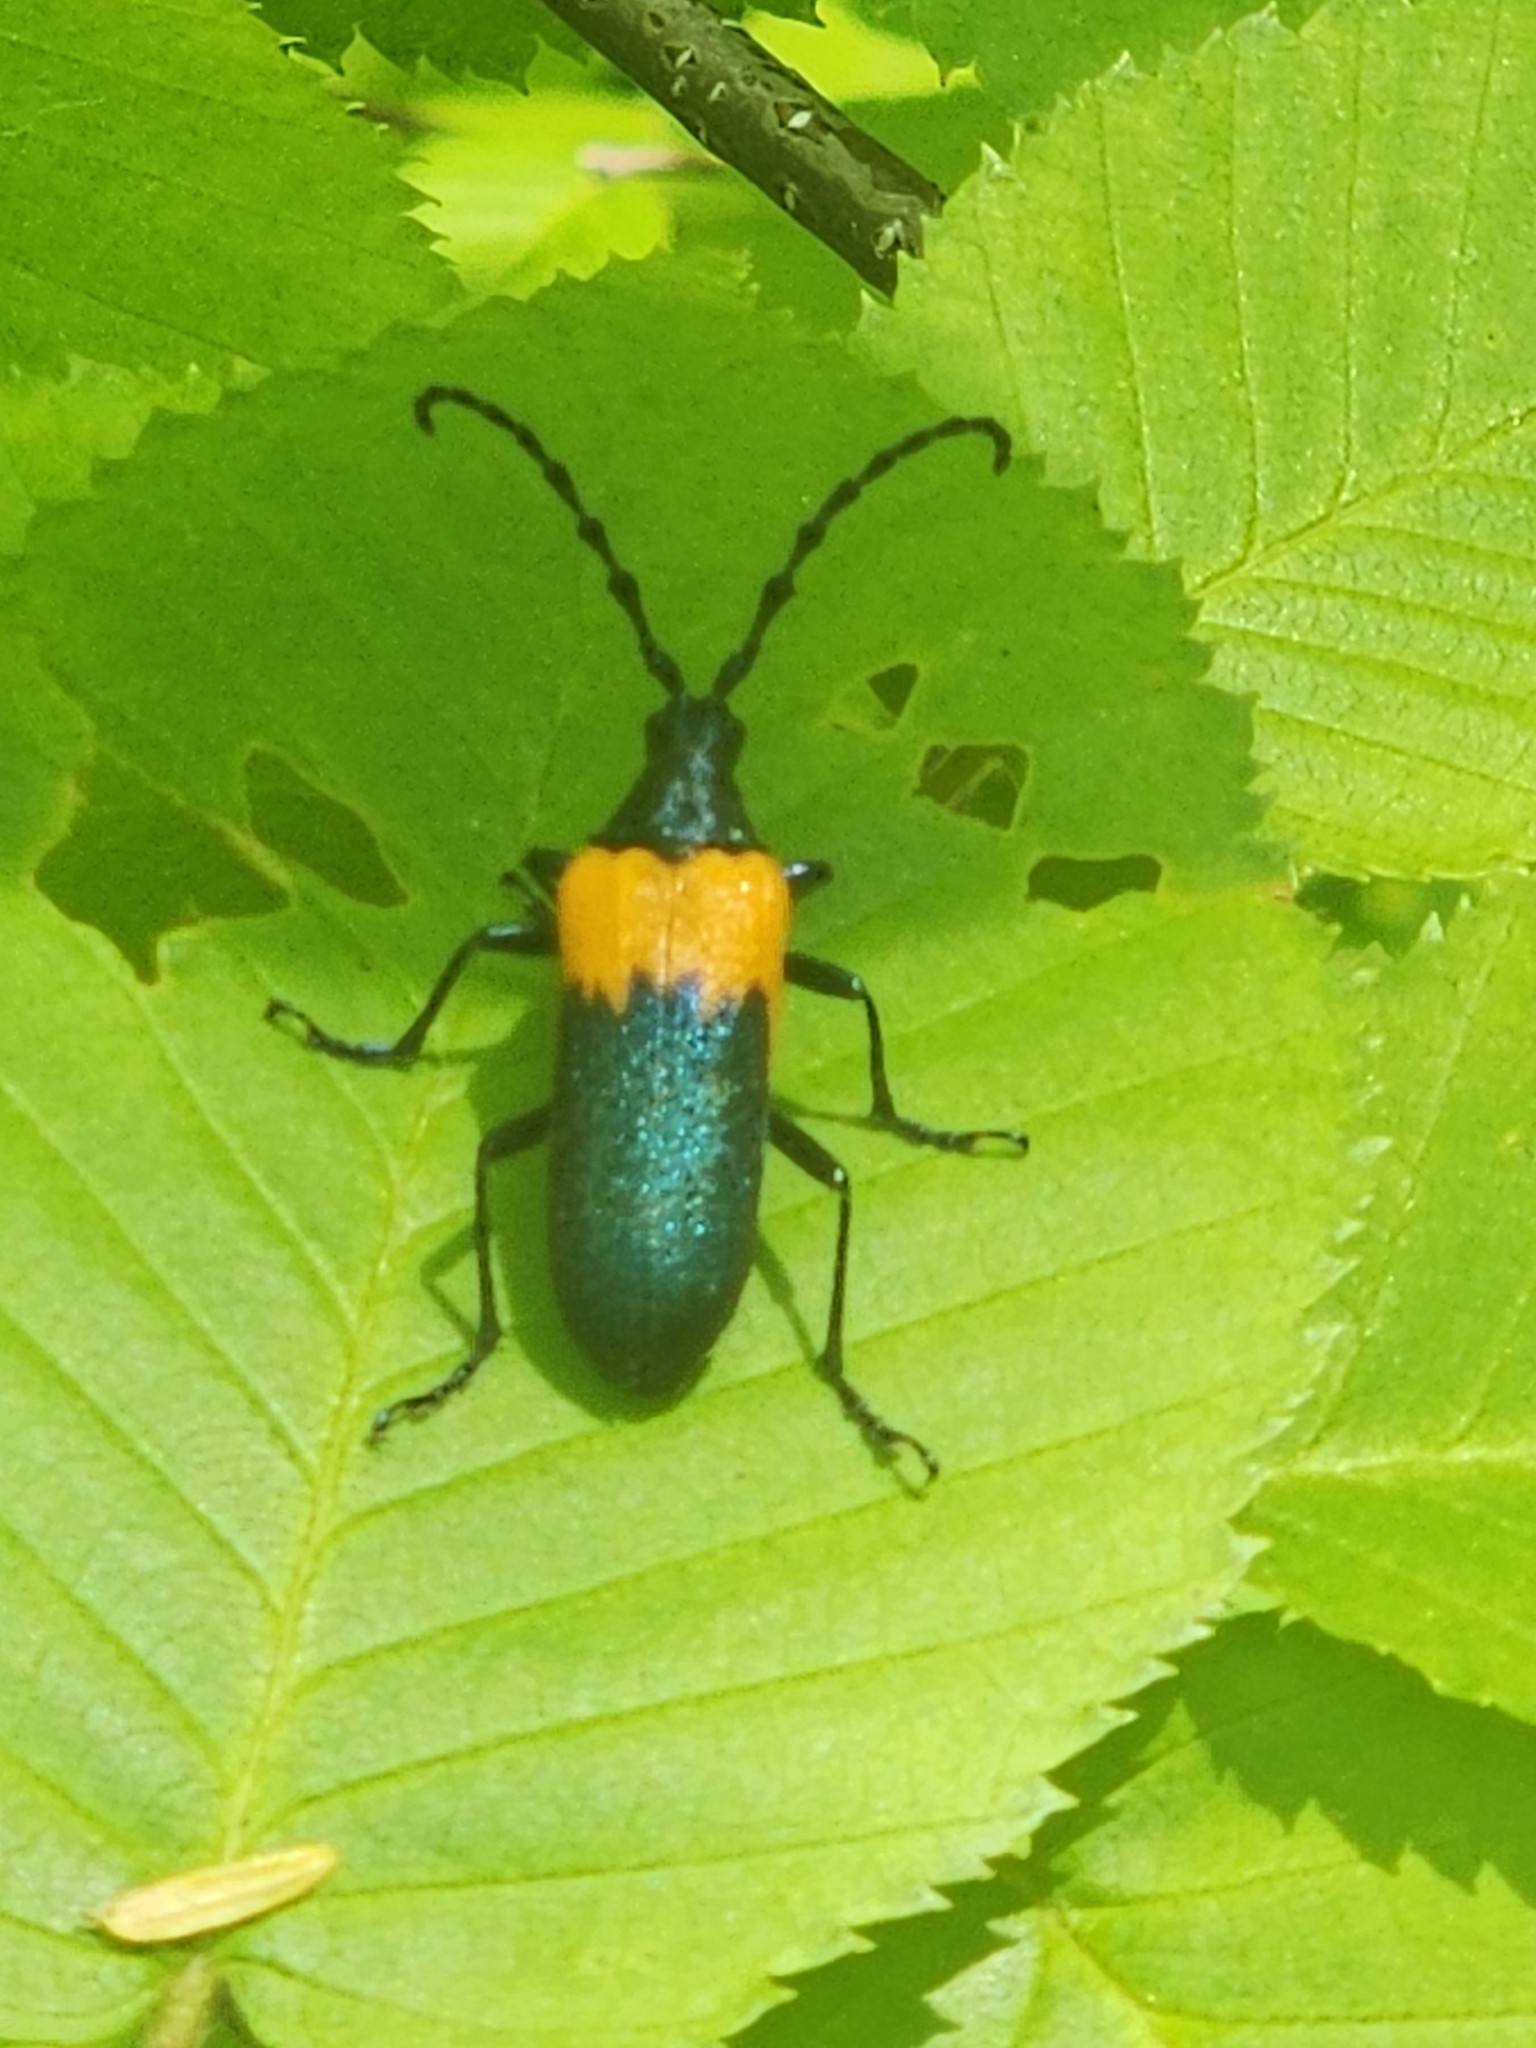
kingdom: Animalia
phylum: Arthropoda
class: Insecta
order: Coleoptera
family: Cerambycidae
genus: Desmocerus
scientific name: Desmocerus palliatus
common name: Eastern elderberry borer
